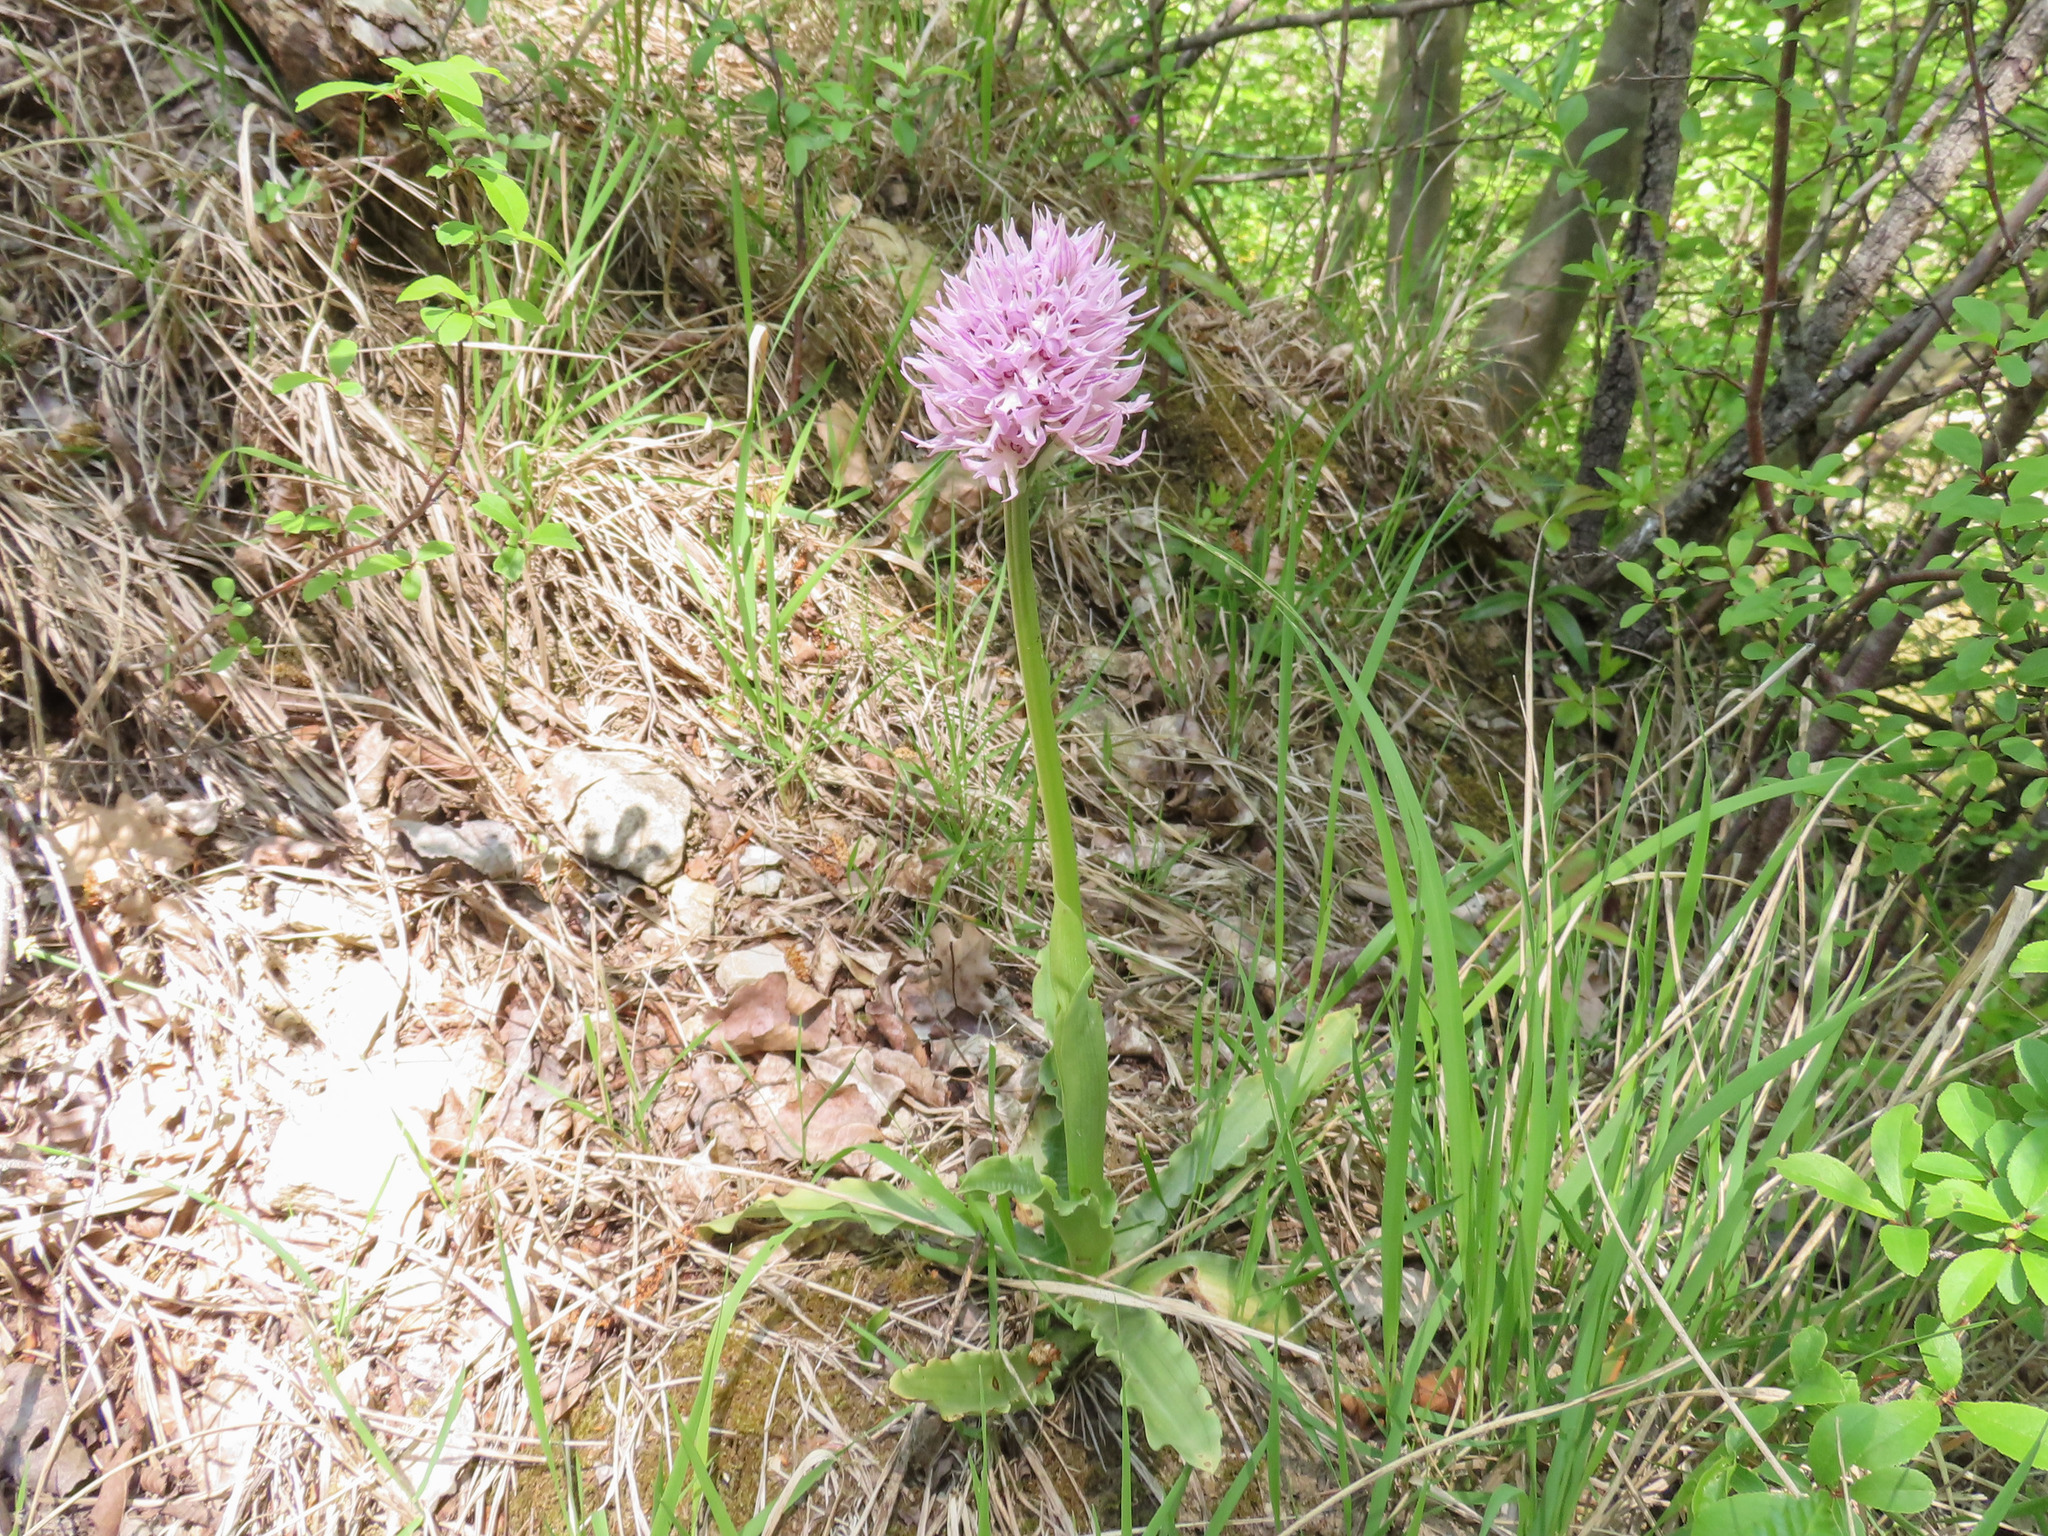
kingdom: Plantae
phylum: Tracheophyta
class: Liliopsida
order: Asparagales
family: Orchidaceae
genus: Orchis
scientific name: Orchis italica
